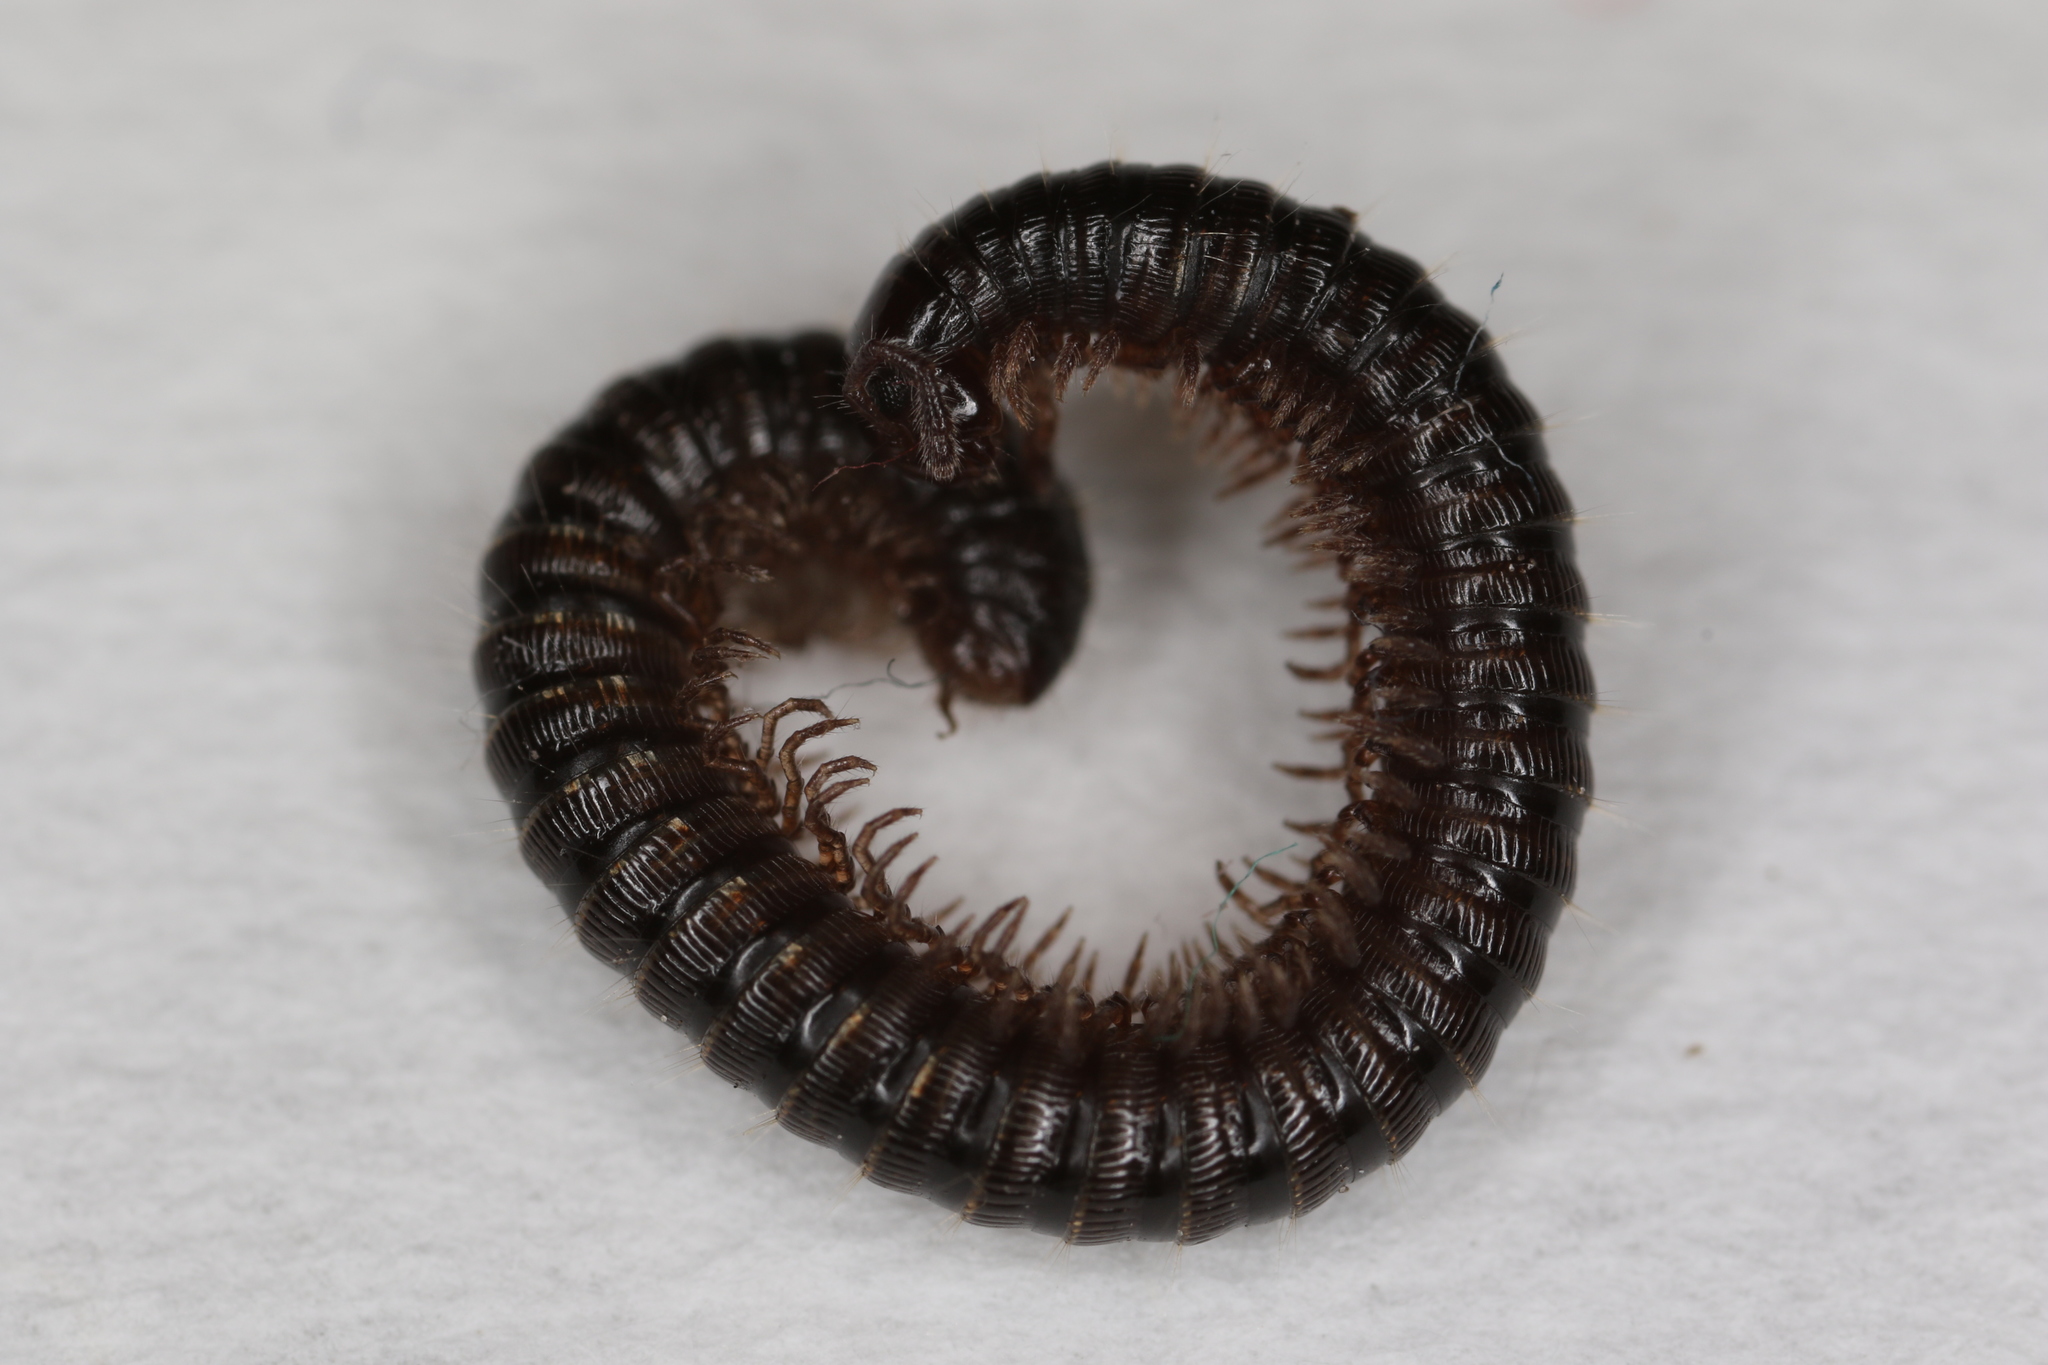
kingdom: Animalia
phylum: Arthropoda
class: Diplopoda
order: Julida
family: Julidae
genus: Unciger
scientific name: Unciger foetidus
